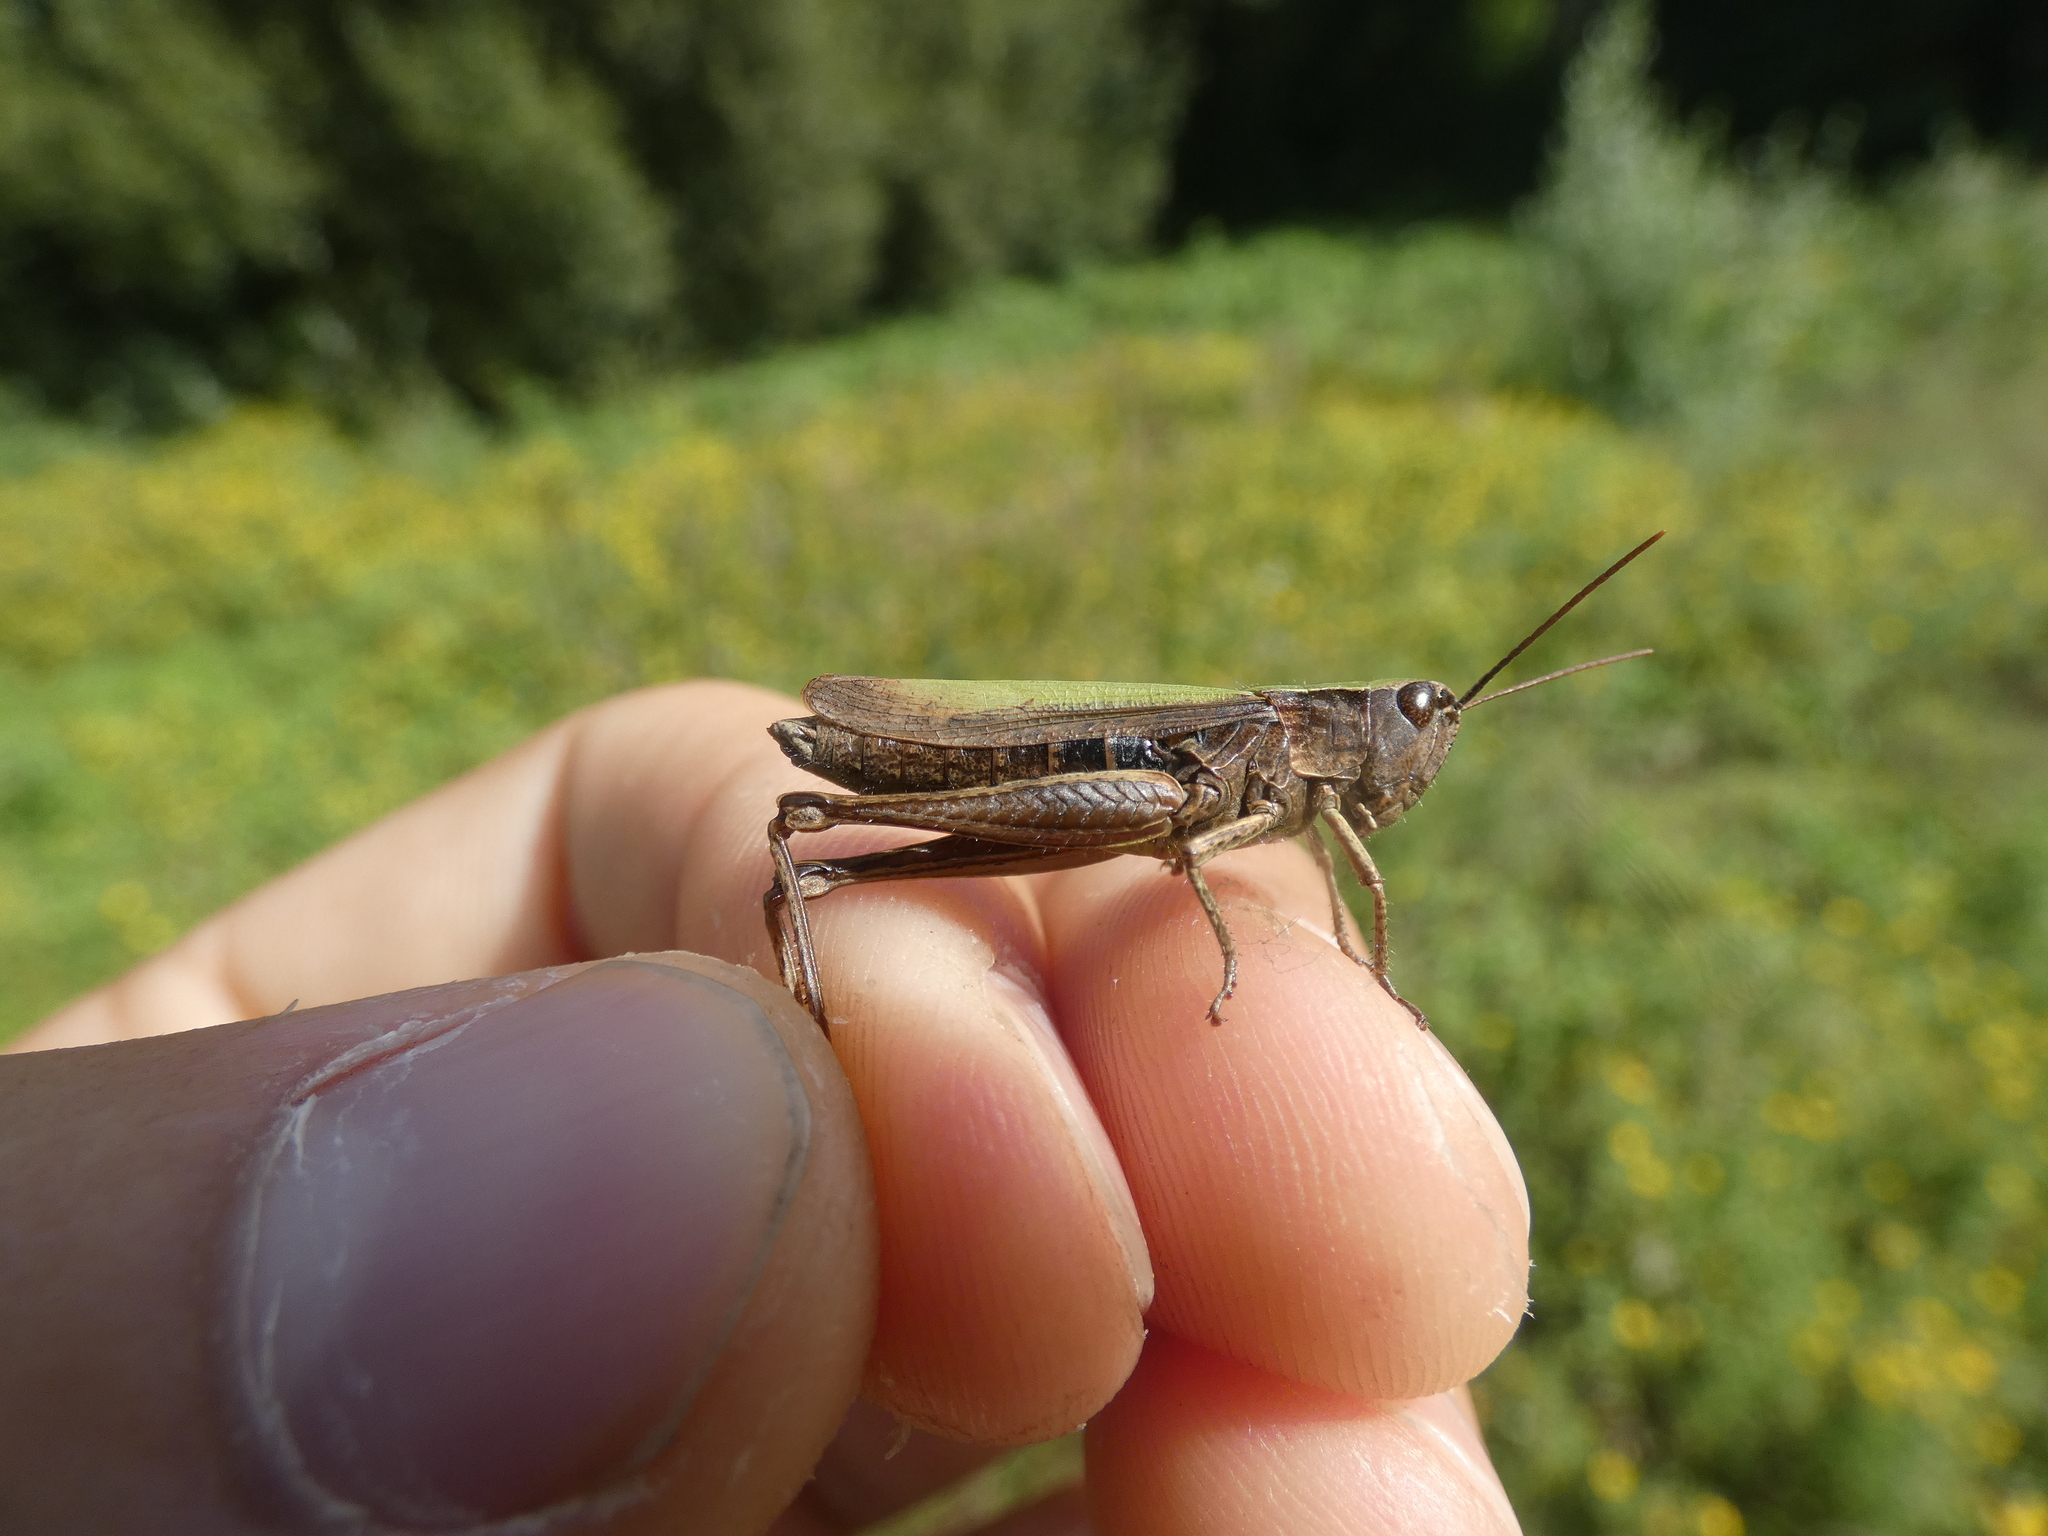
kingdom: Animalia
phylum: Arthropoda
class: Insecta
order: Orthoptera
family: Acrididae
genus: Chorthippus
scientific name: Chorthippus dorsatus
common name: Steppe grasshopper
